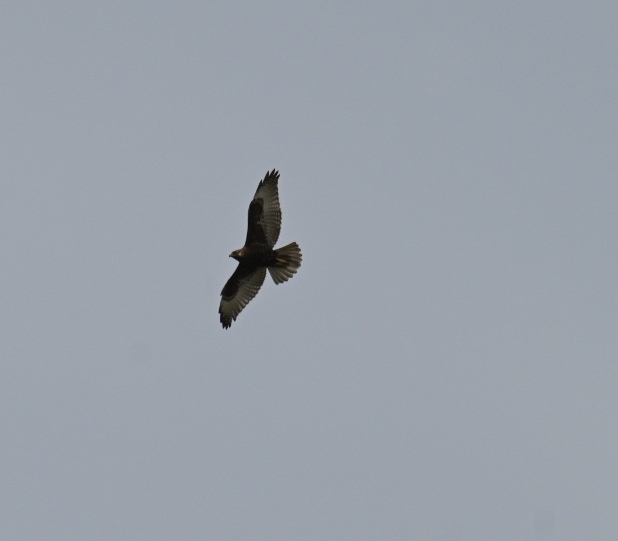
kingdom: Animalia
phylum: Chordata
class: Aves
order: Accipitriformes
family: Accipitridae
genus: Buteo
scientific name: Buteo polyosoma
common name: Variable hawk
